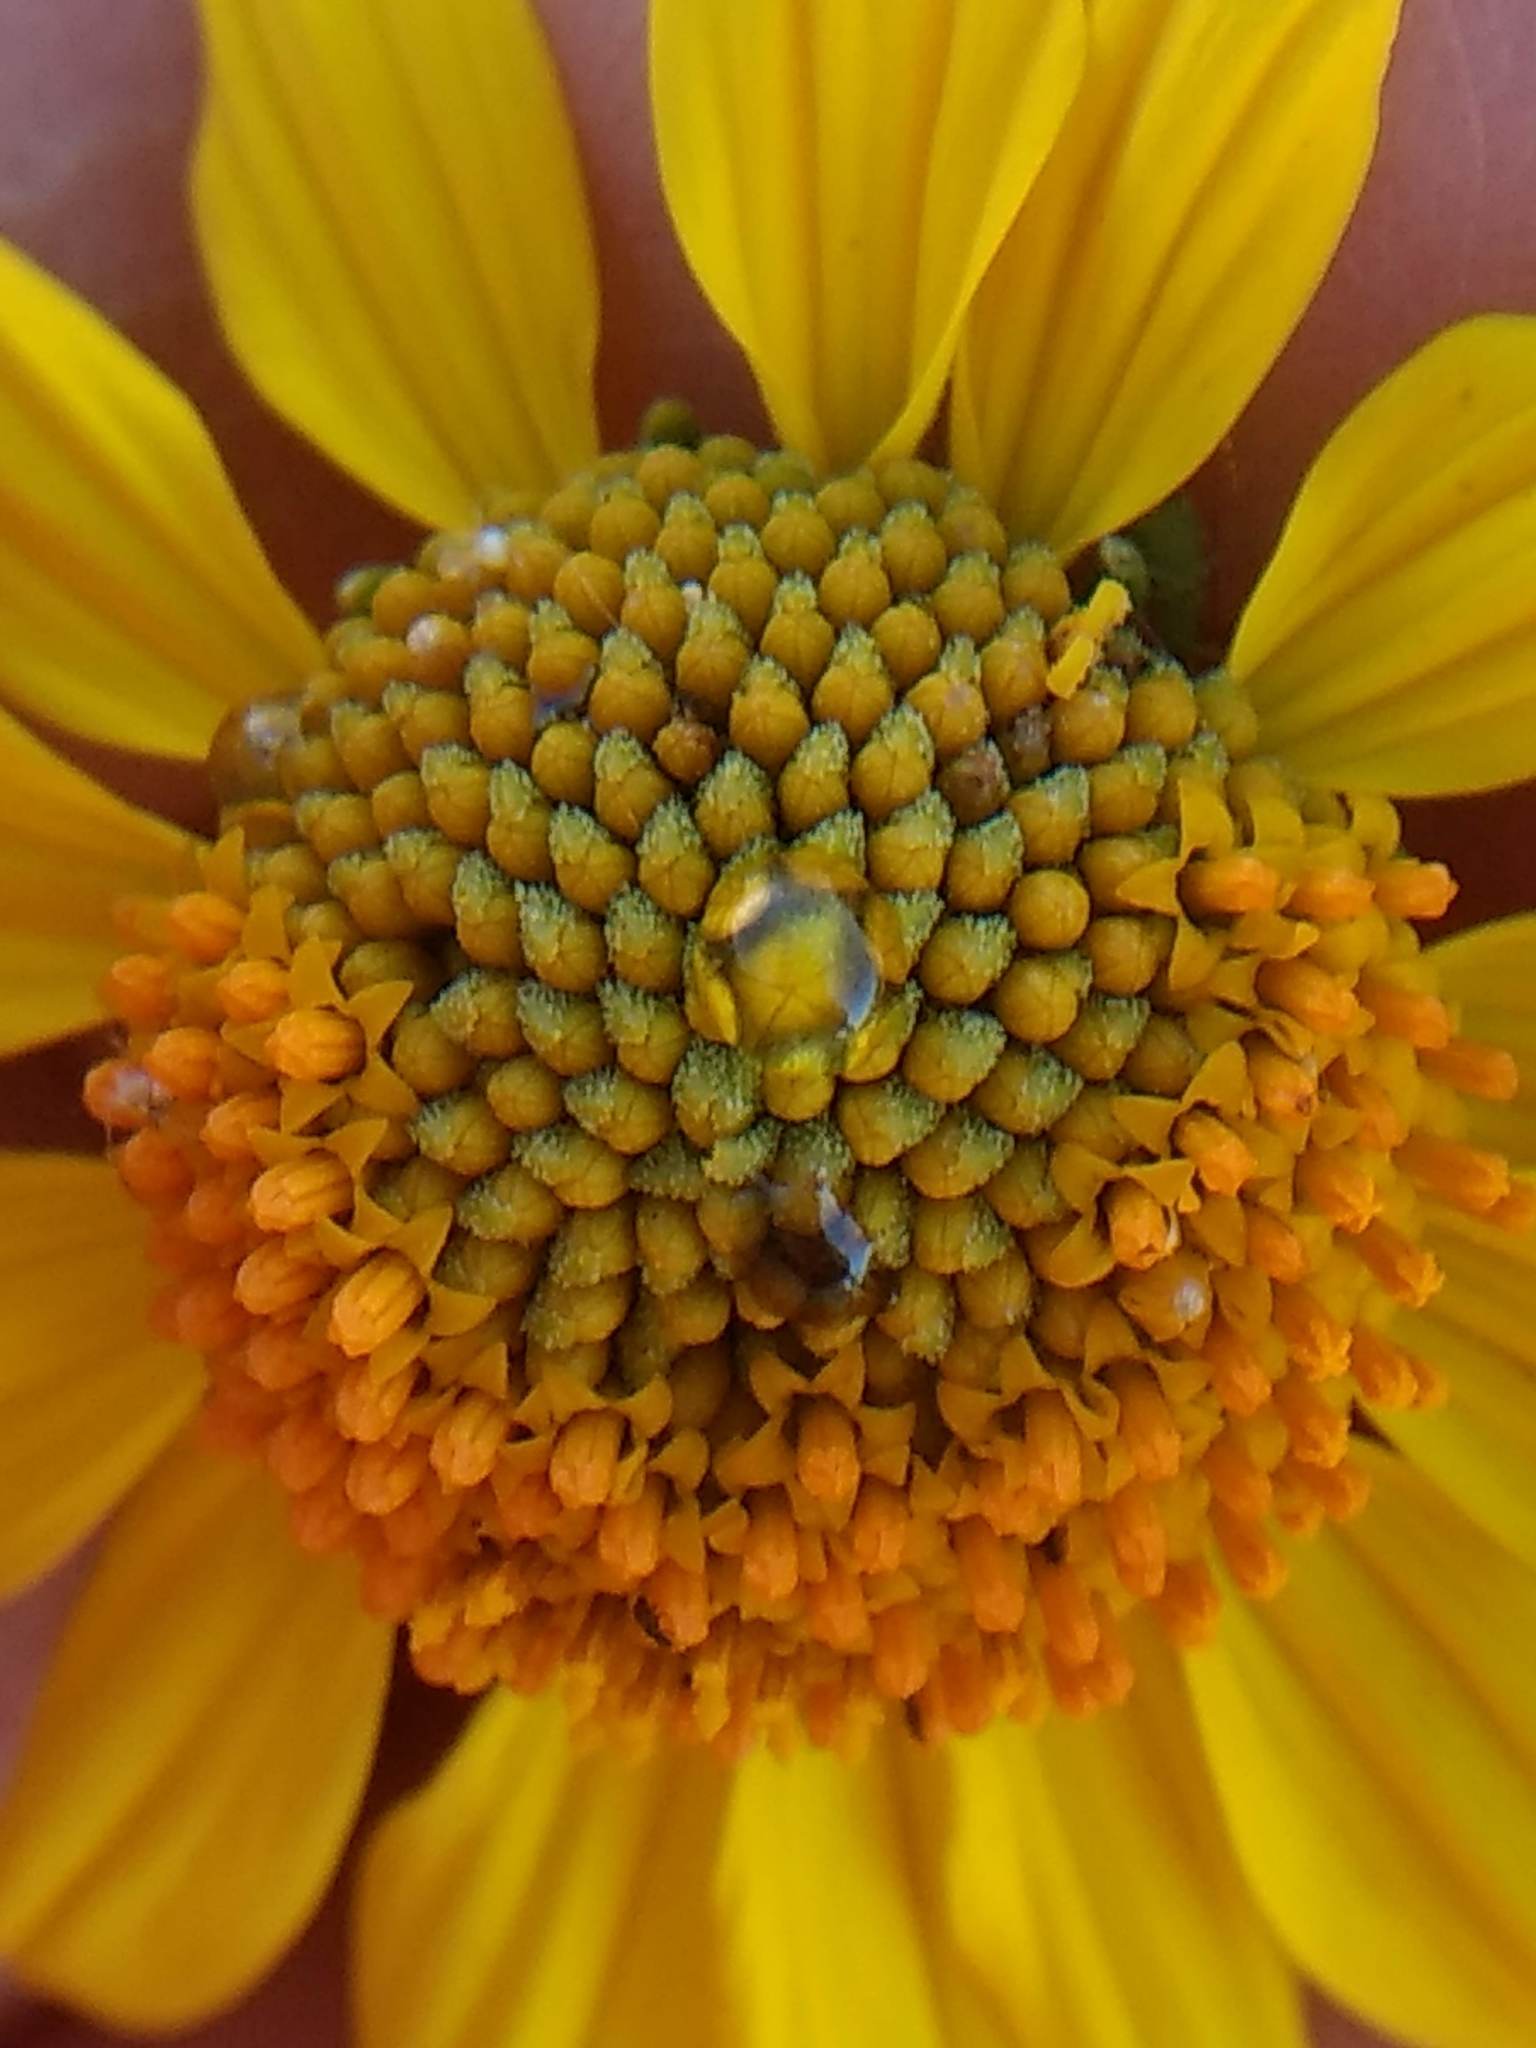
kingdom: Plantae
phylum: Tracheophyta
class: Magnoliopsida
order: Asterales
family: Asteraceae
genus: Encelia
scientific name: Encelia farinosa
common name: Brittlebush
